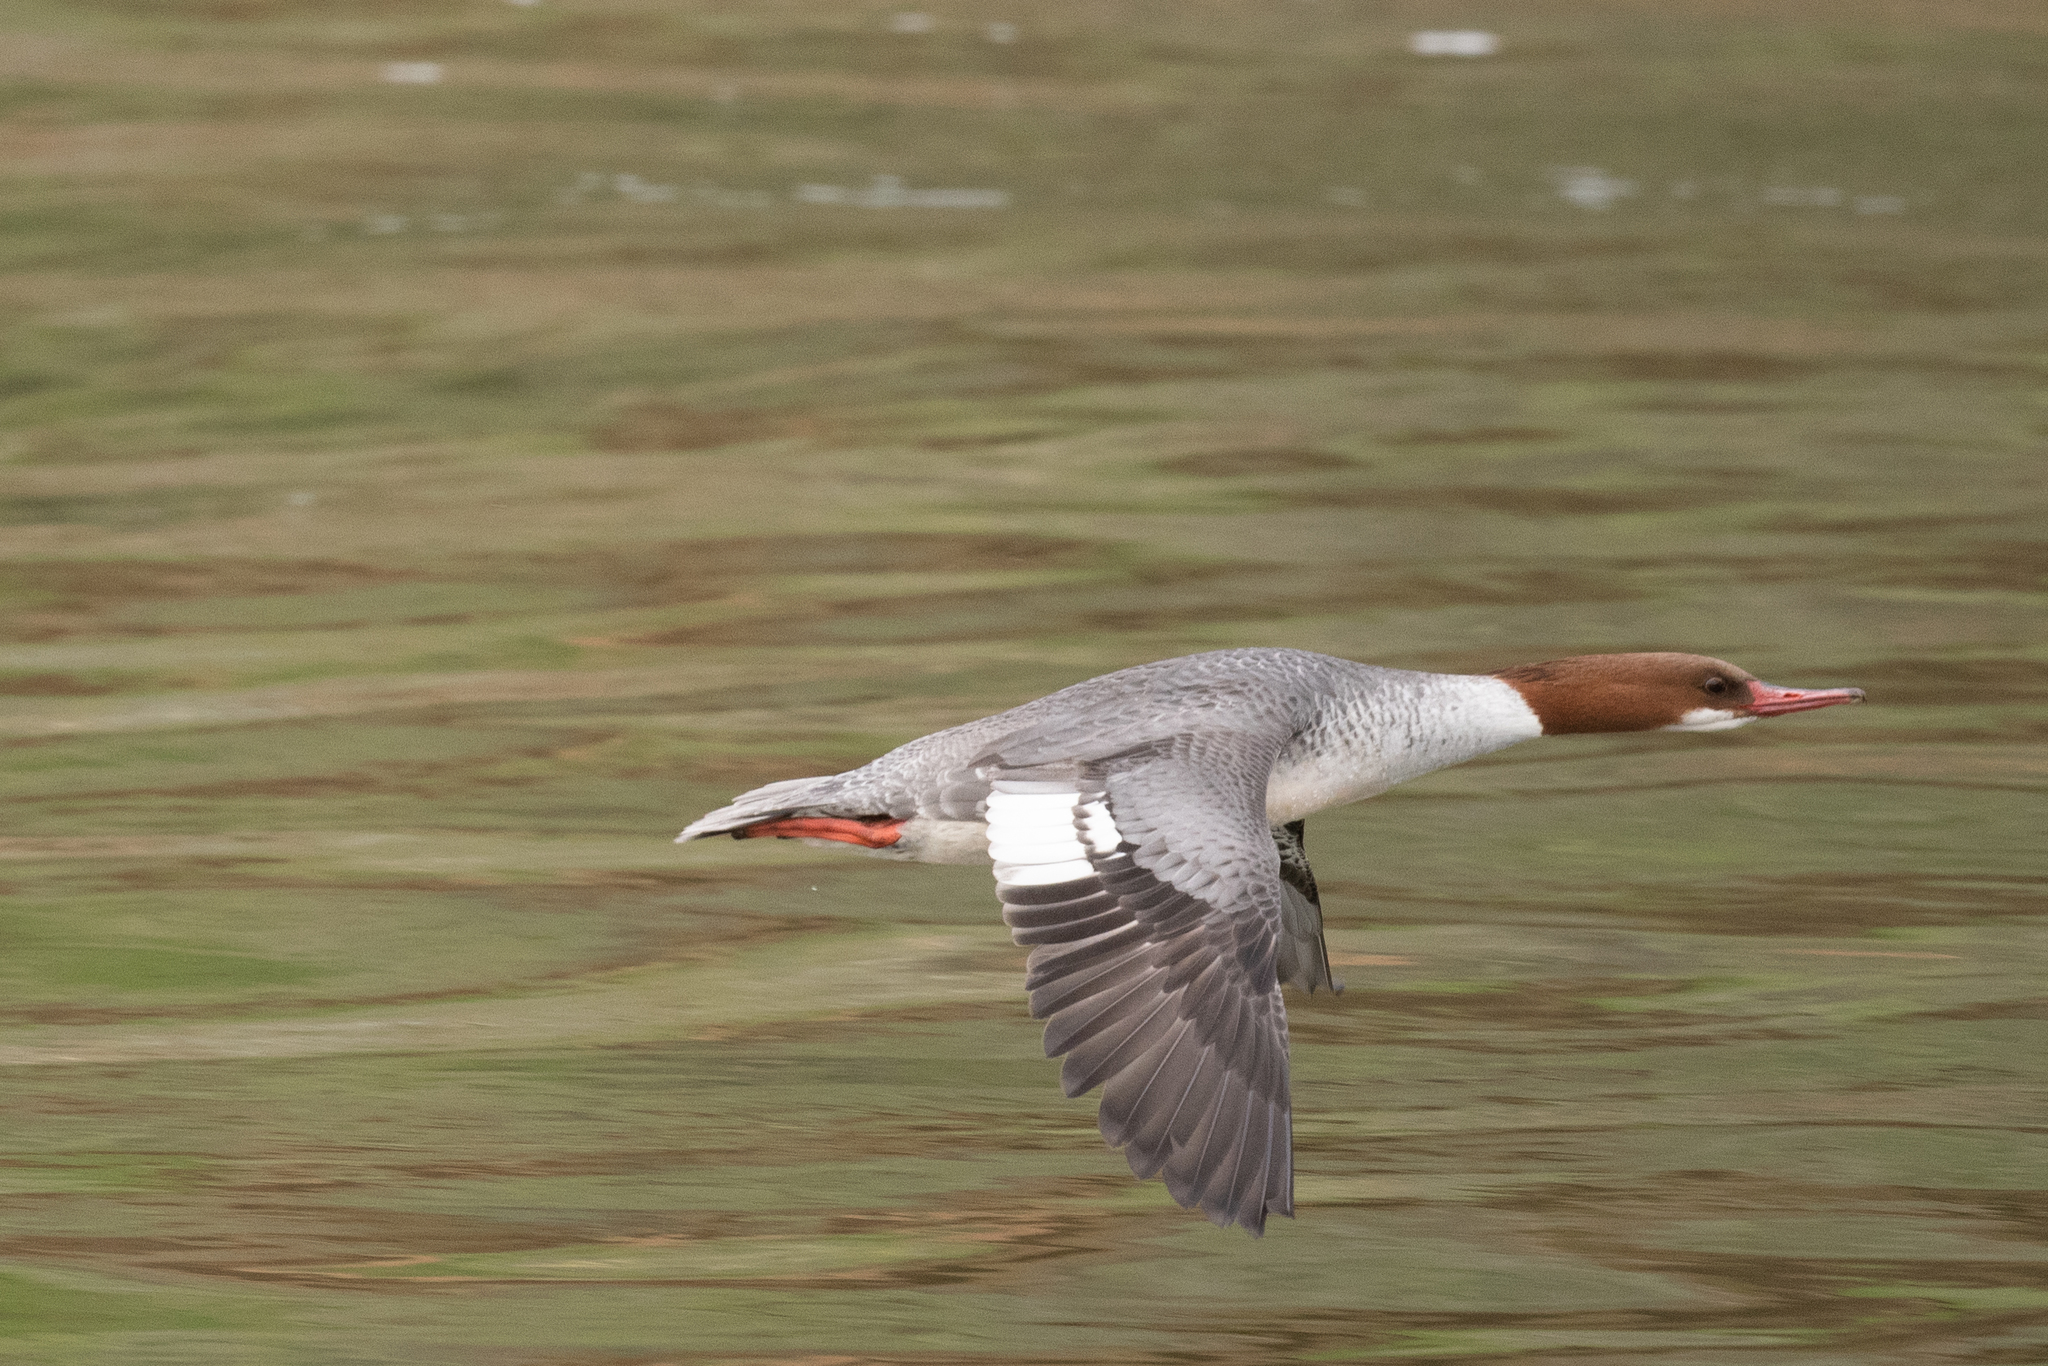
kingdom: Animalia
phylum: Chordata
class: Aves
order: Anseriformes
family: Anatidae
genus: Mergus
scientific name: Mergus merganser
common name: Common merganser
